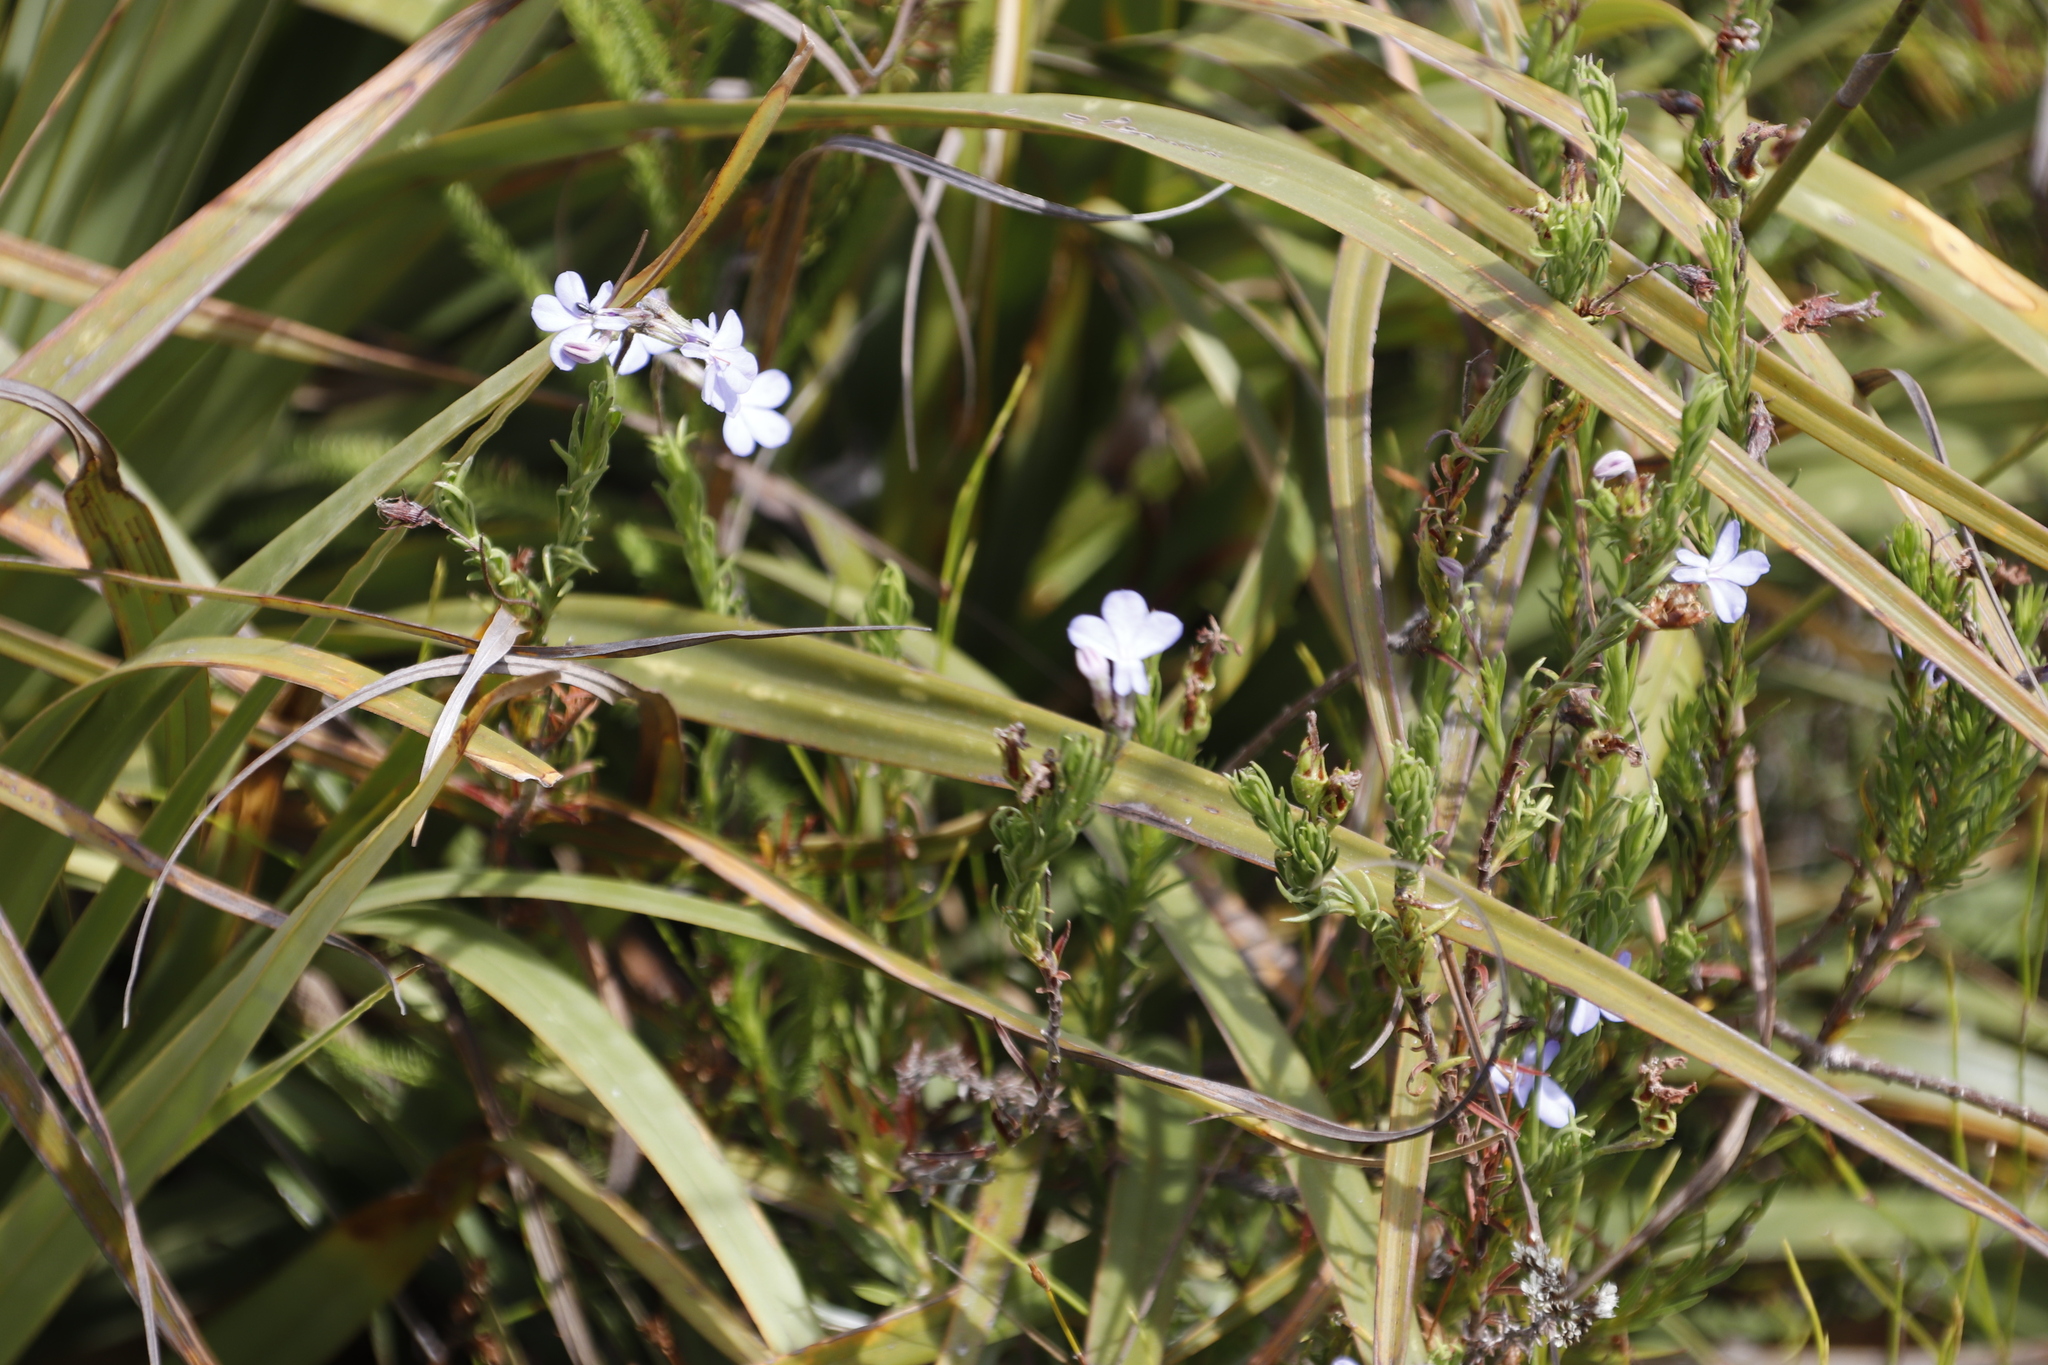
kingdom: Plantae
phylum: Tracheophyta
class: Magnoliopsida
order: Asterales
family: Campanulaceae
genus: Lobelia
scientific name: Lobelia pinifolia
